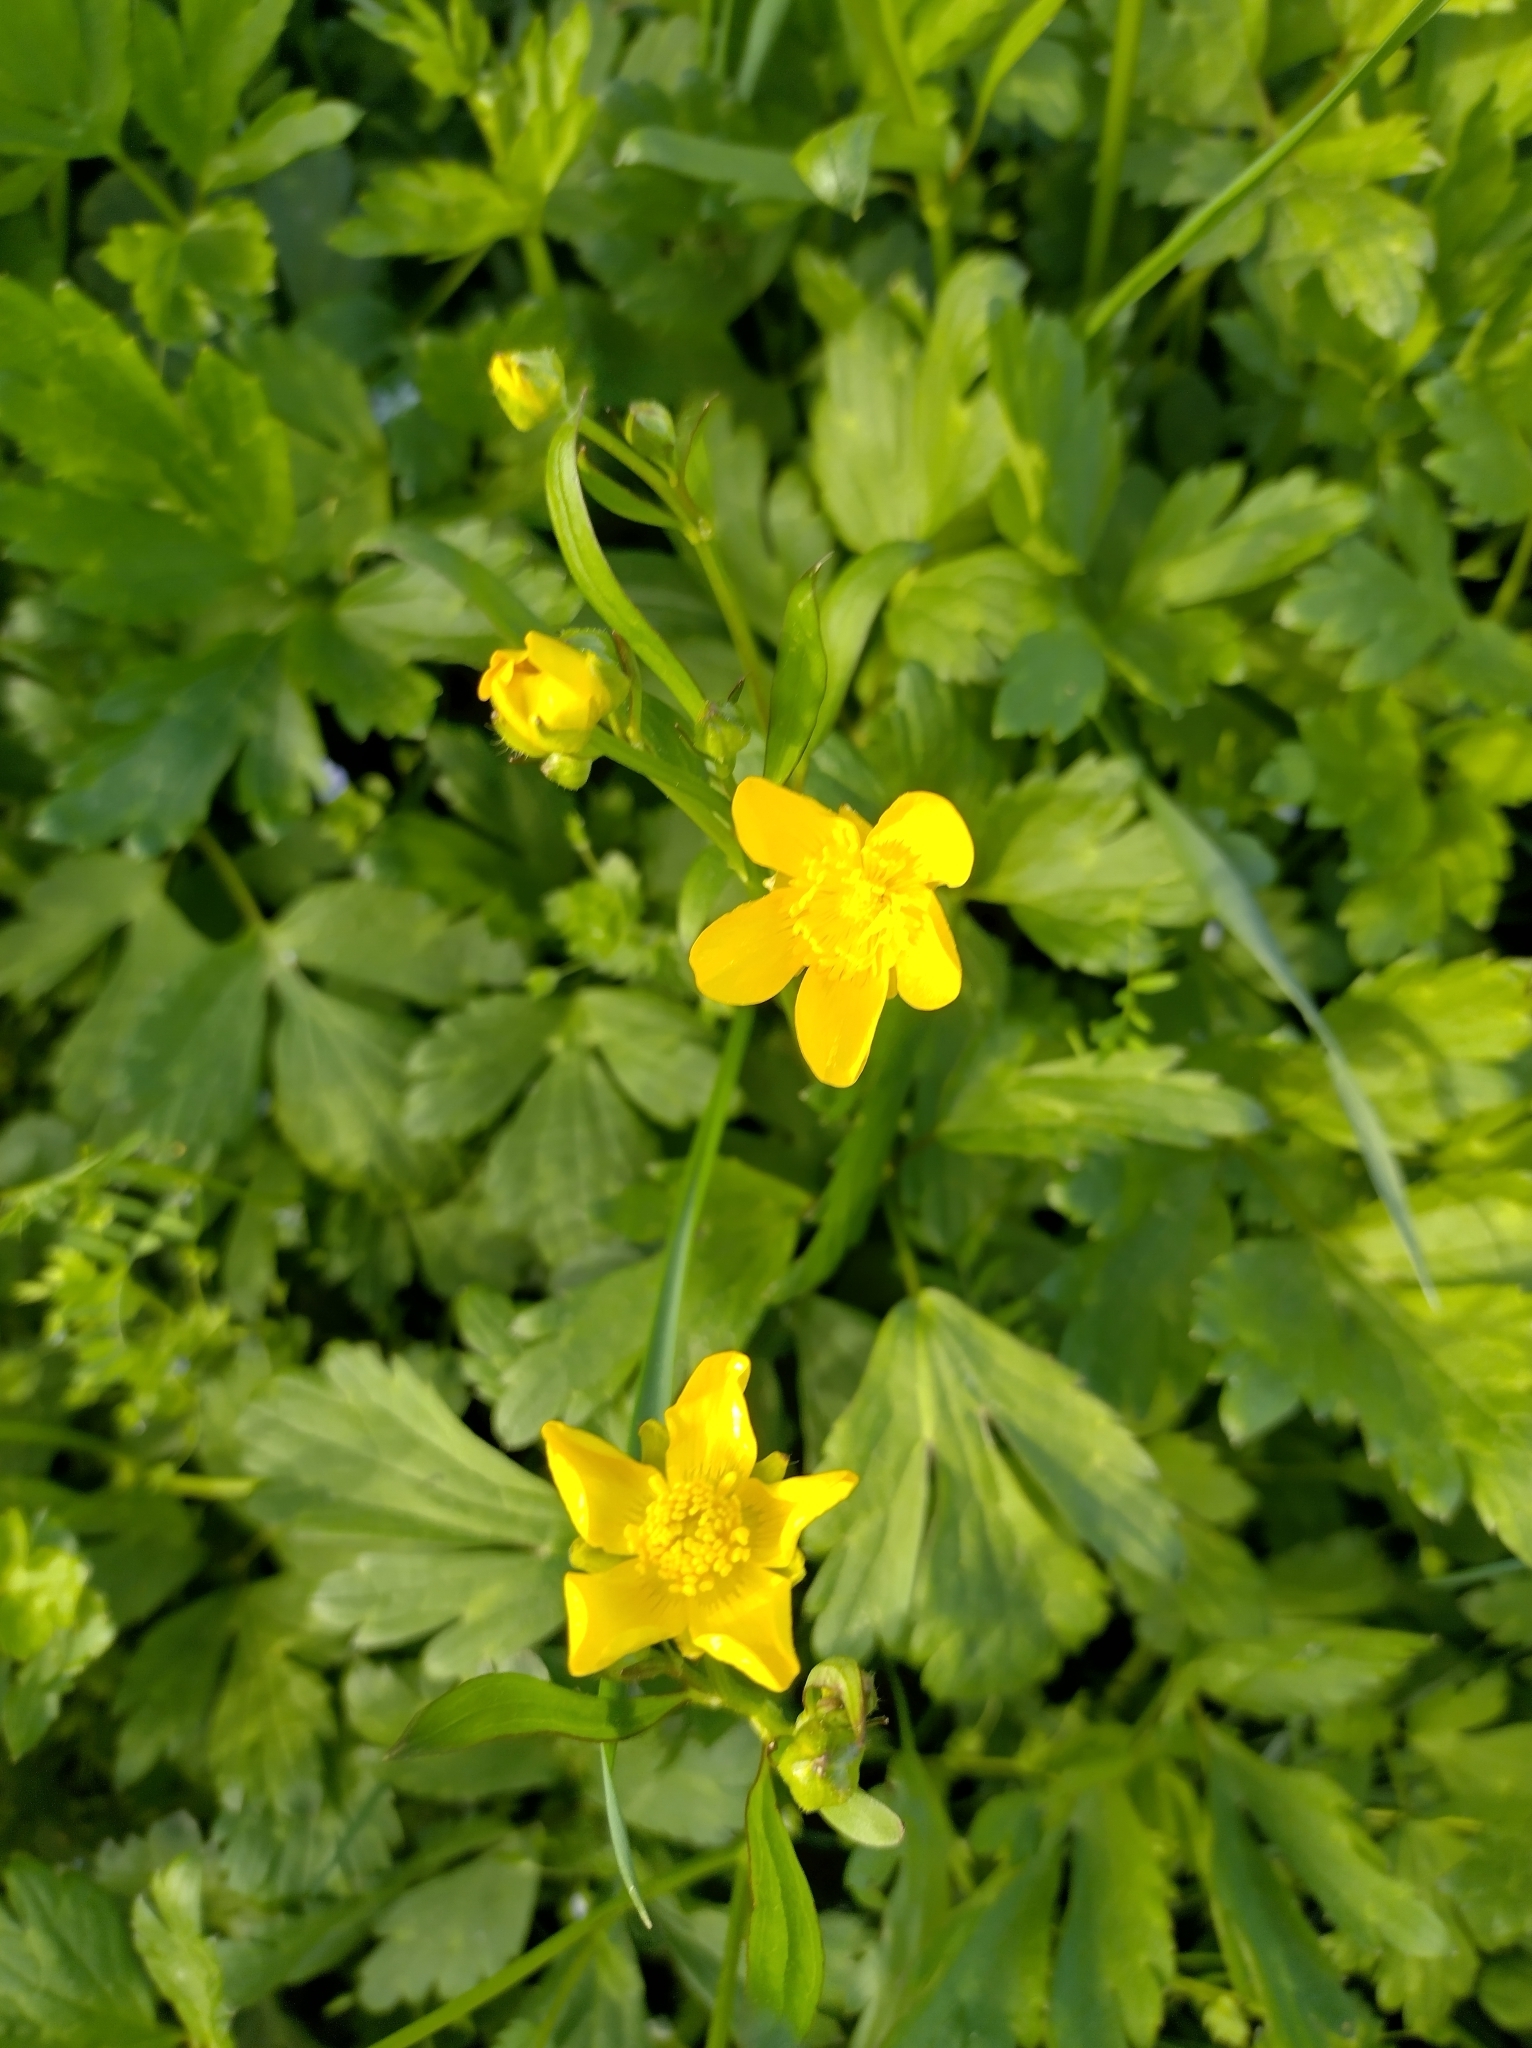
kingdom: Plantae
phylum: Tracheophyta
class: Magnoliopsida
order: Ranunculales
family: Ranunculaceae
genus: Ranunculus
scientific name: Ranunculus repens
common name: Creeping buttercup
